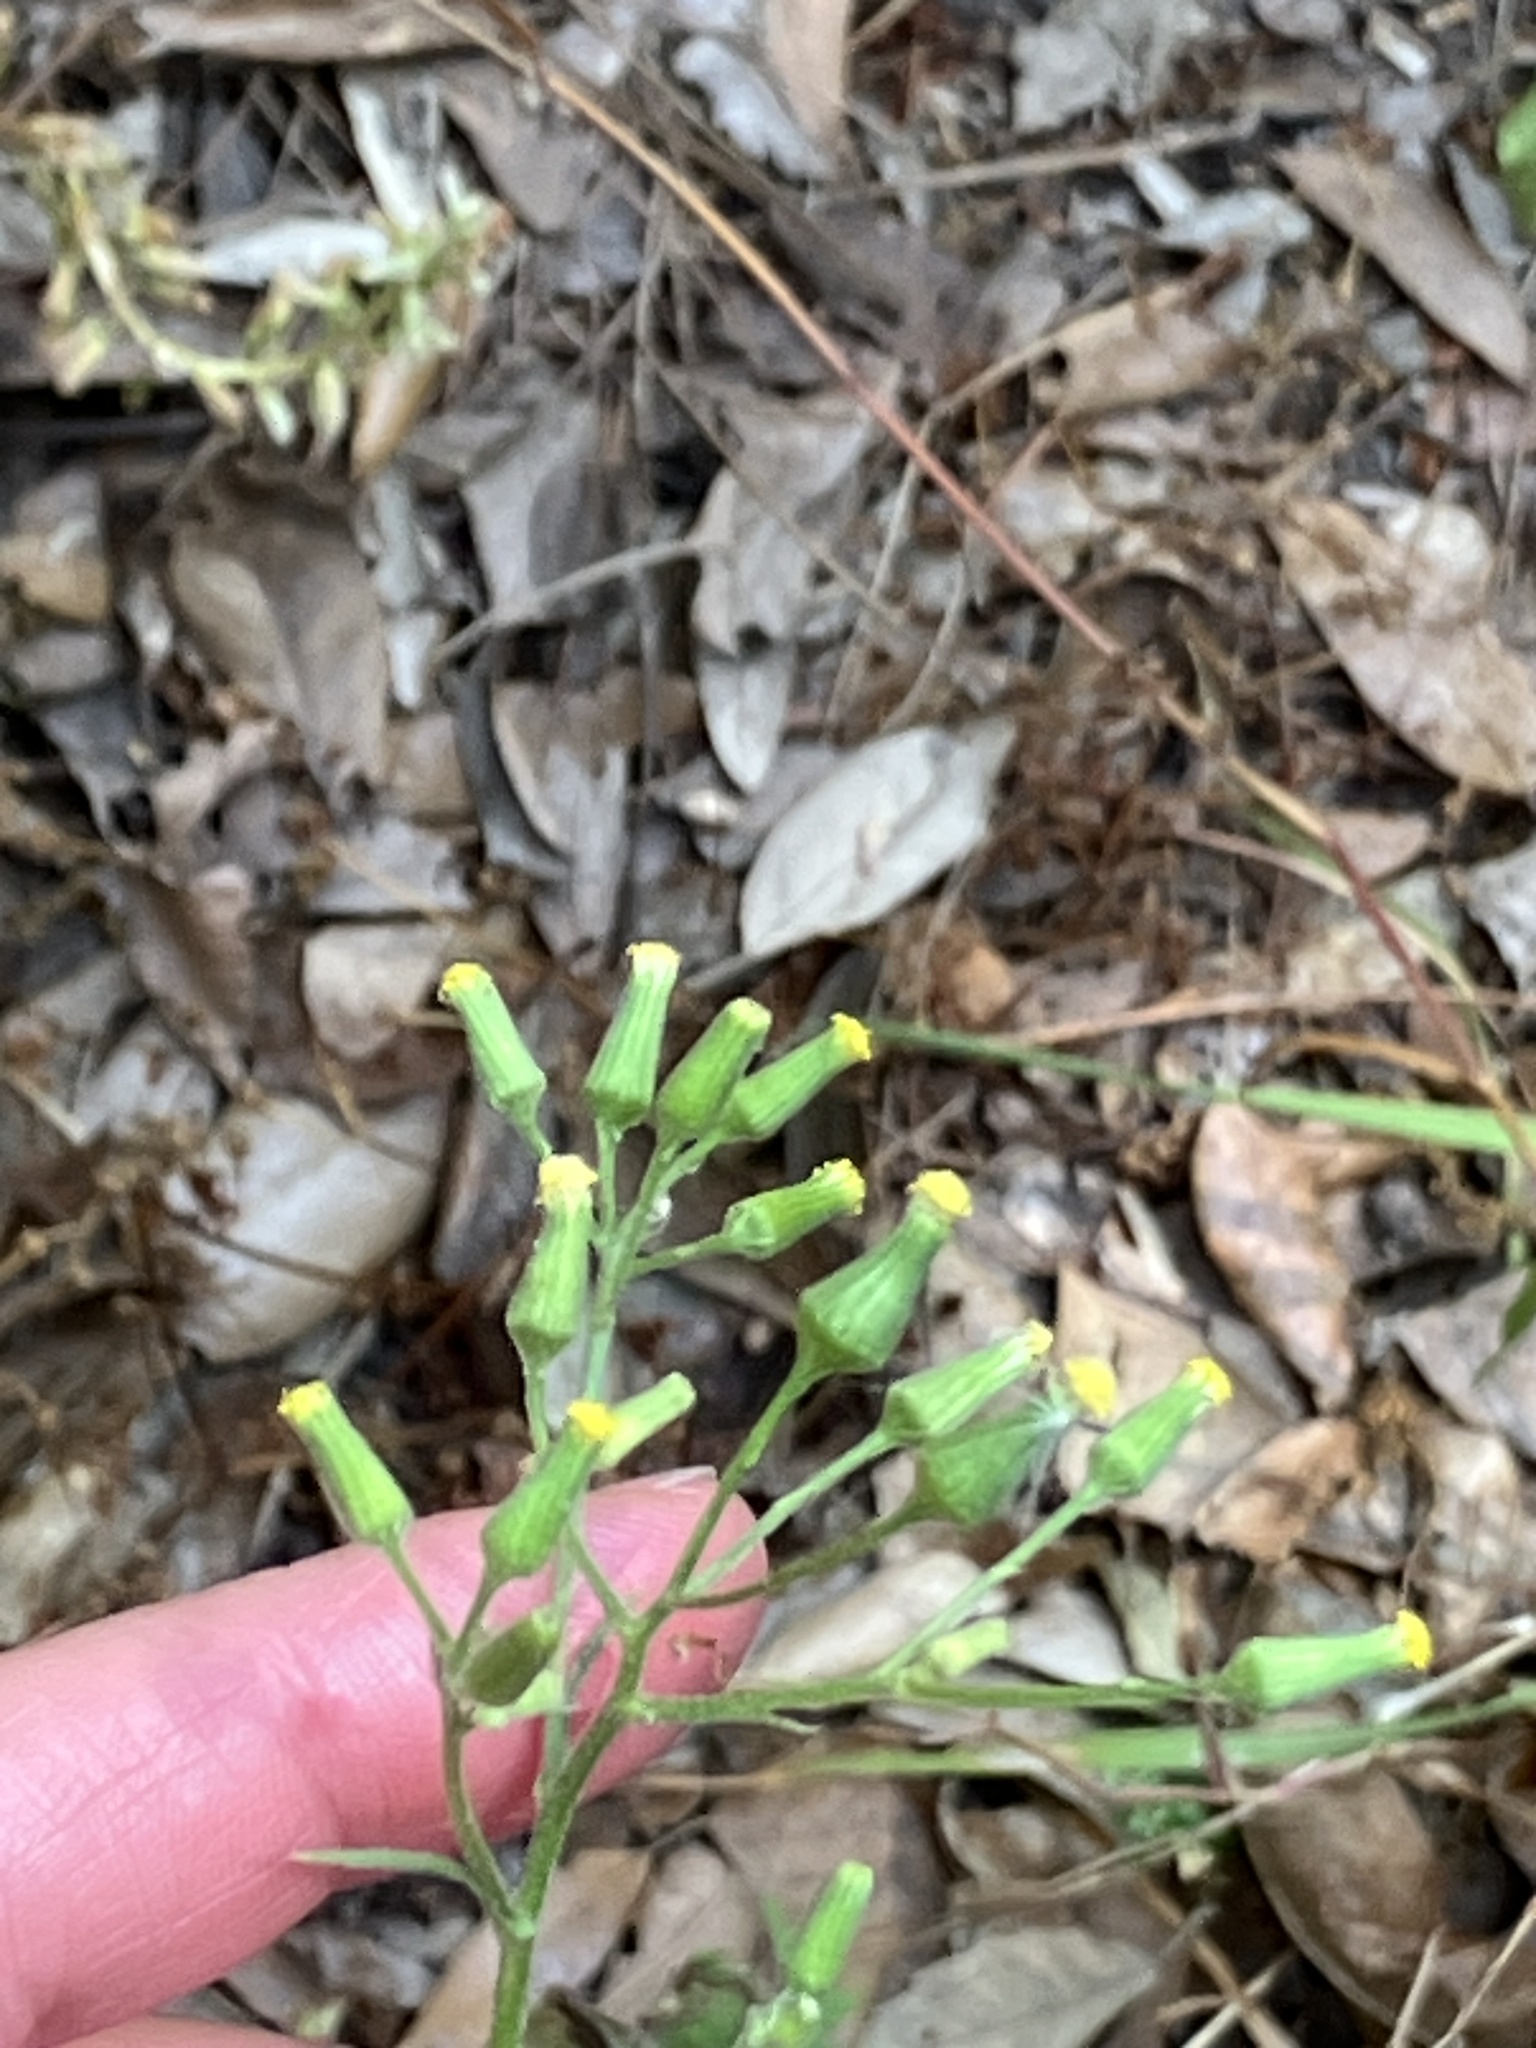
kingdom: Plantae
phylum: Tracheophyta
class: Magnoliopsida
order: Asterales
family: Asteraceae
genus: Senecio
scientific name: Senecio vulgaris
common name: Old-man-in-the-spring
